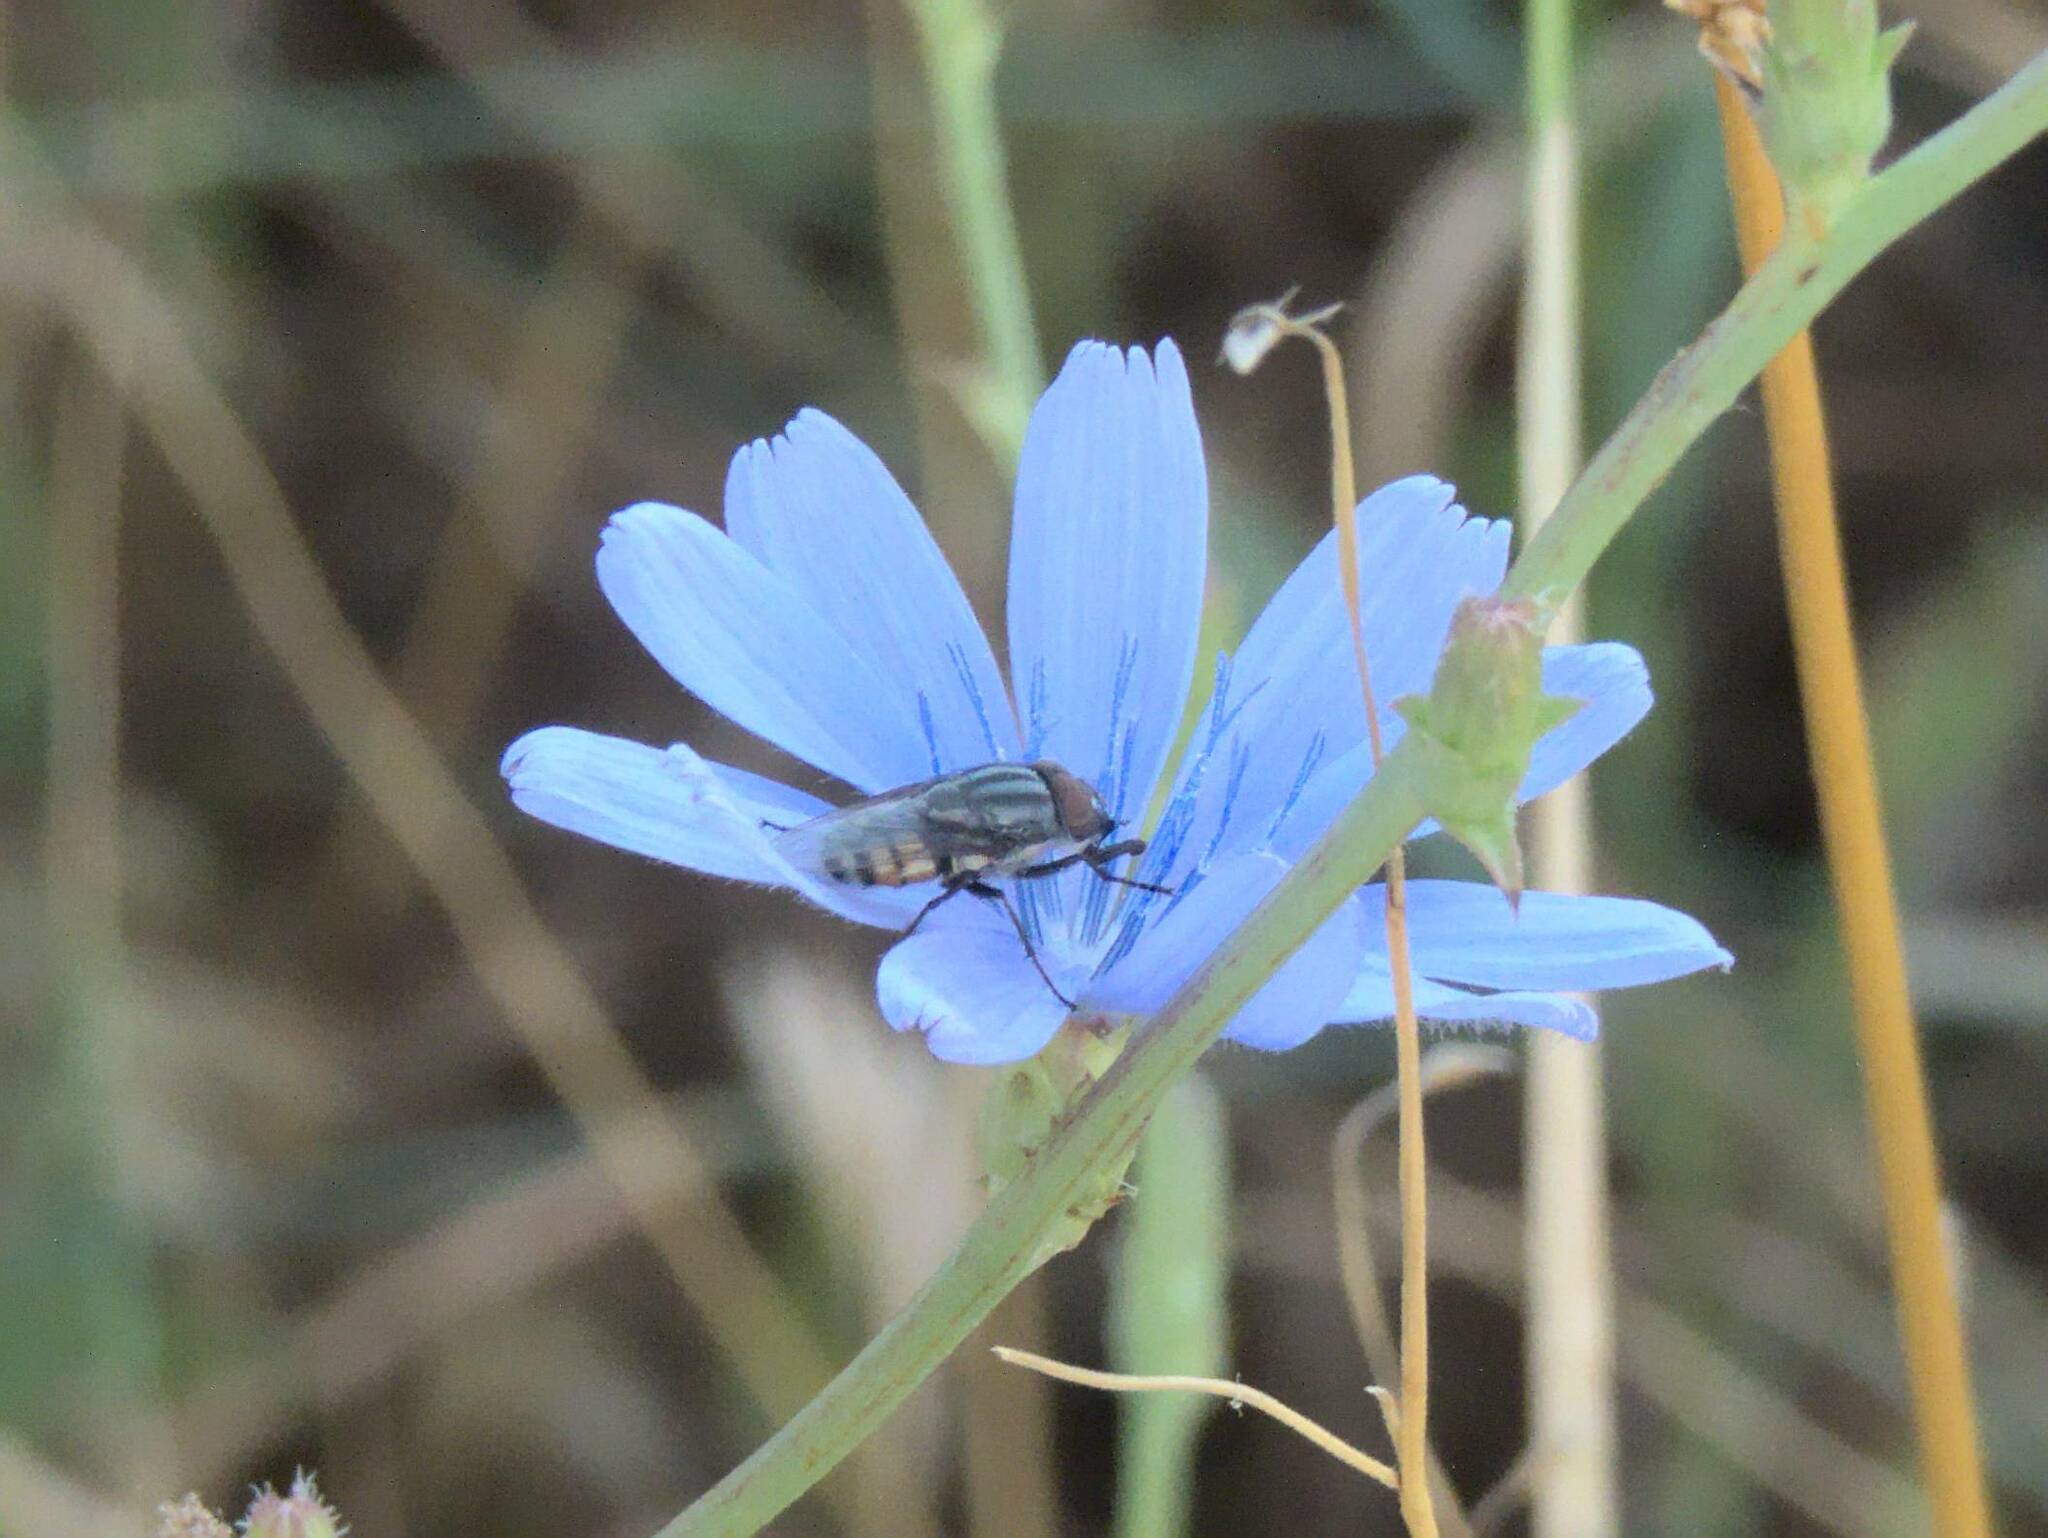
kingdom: Animalia
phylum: Arthropoda
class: Insecta
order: Diptera
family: Calliphoridae
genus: Stomorhina
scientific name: Stomorhina lunata
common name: Locust blowfly
